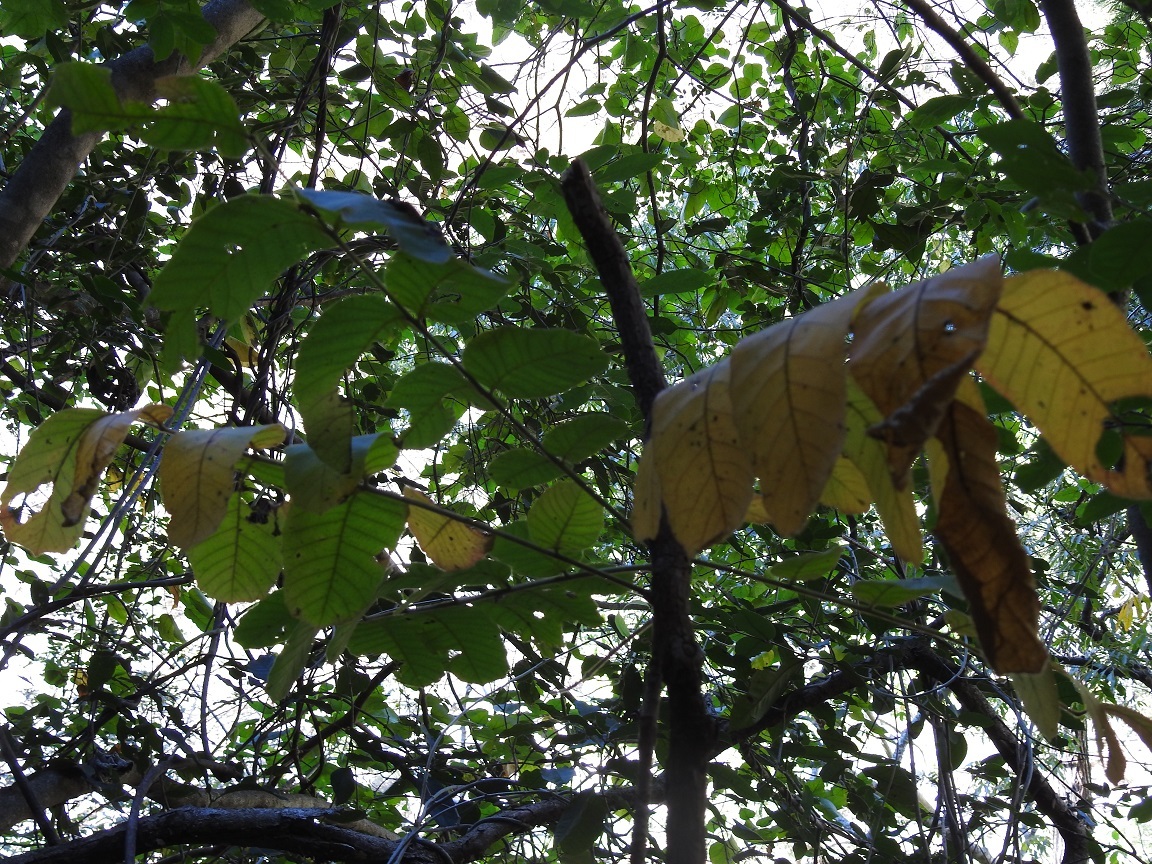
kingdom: Plantae
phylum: Tracheophyta
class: Magnoliopsida
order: Sapindales
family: Anacardiaceae
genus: Comocladia
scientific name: Comocladia guatemalensis
